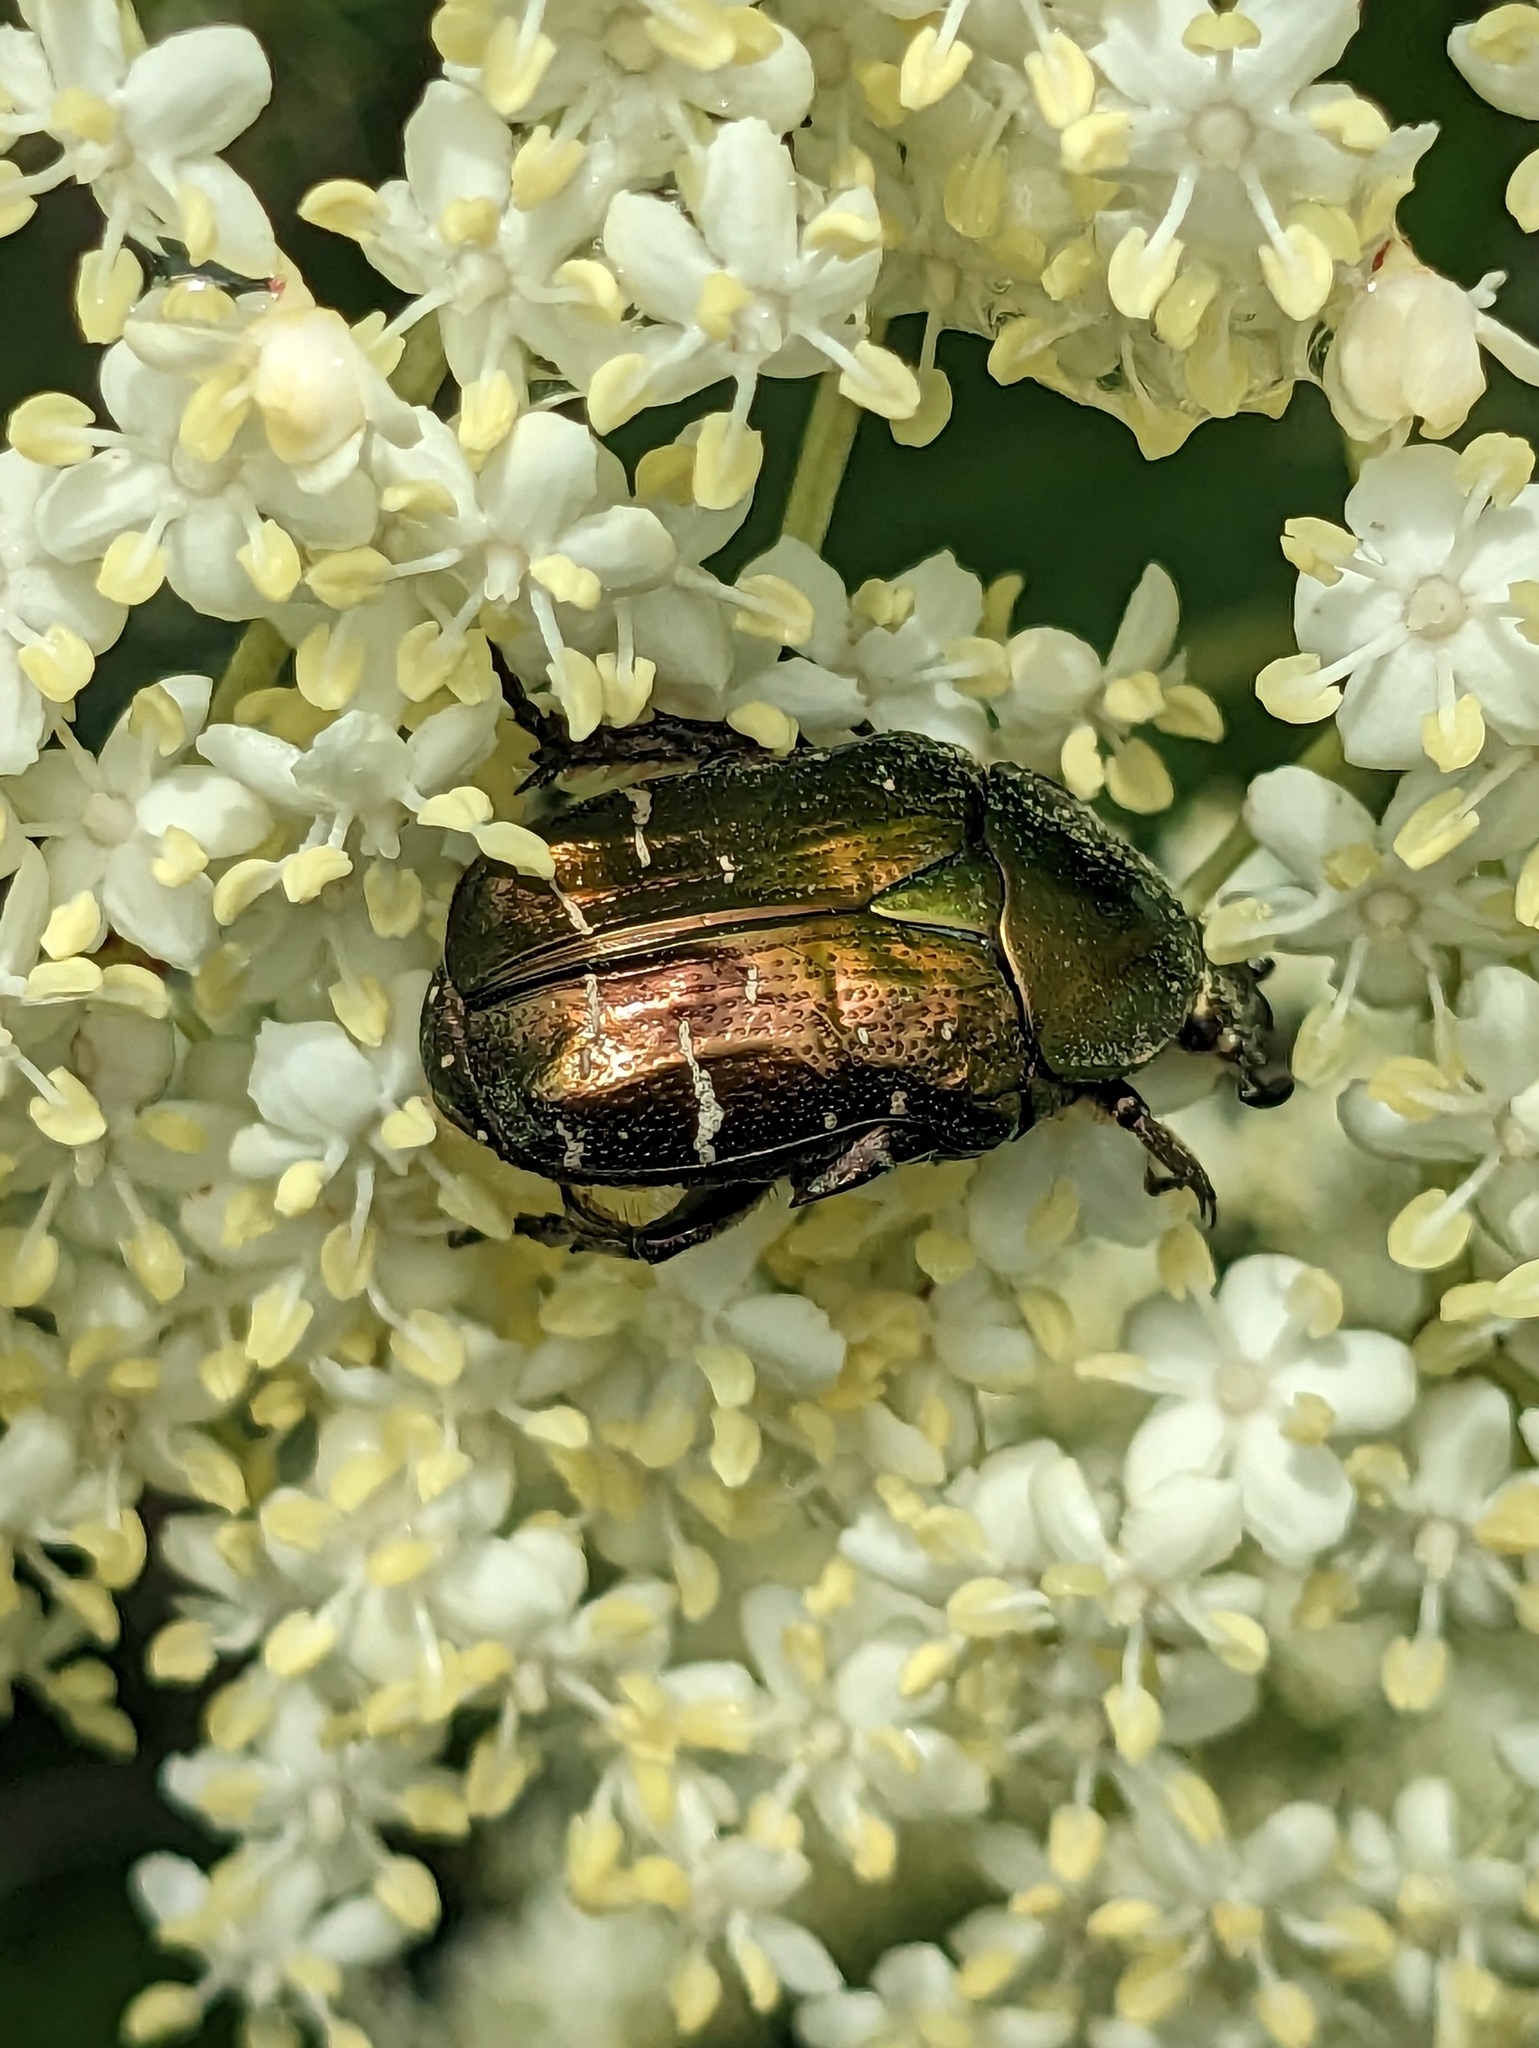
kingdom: Animalia
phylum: Arthropoda
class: Insecta
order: Coleoptera
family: Scarabaeidae
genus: Cetonia
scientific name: Cetonia aurata
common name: Rose chafer
